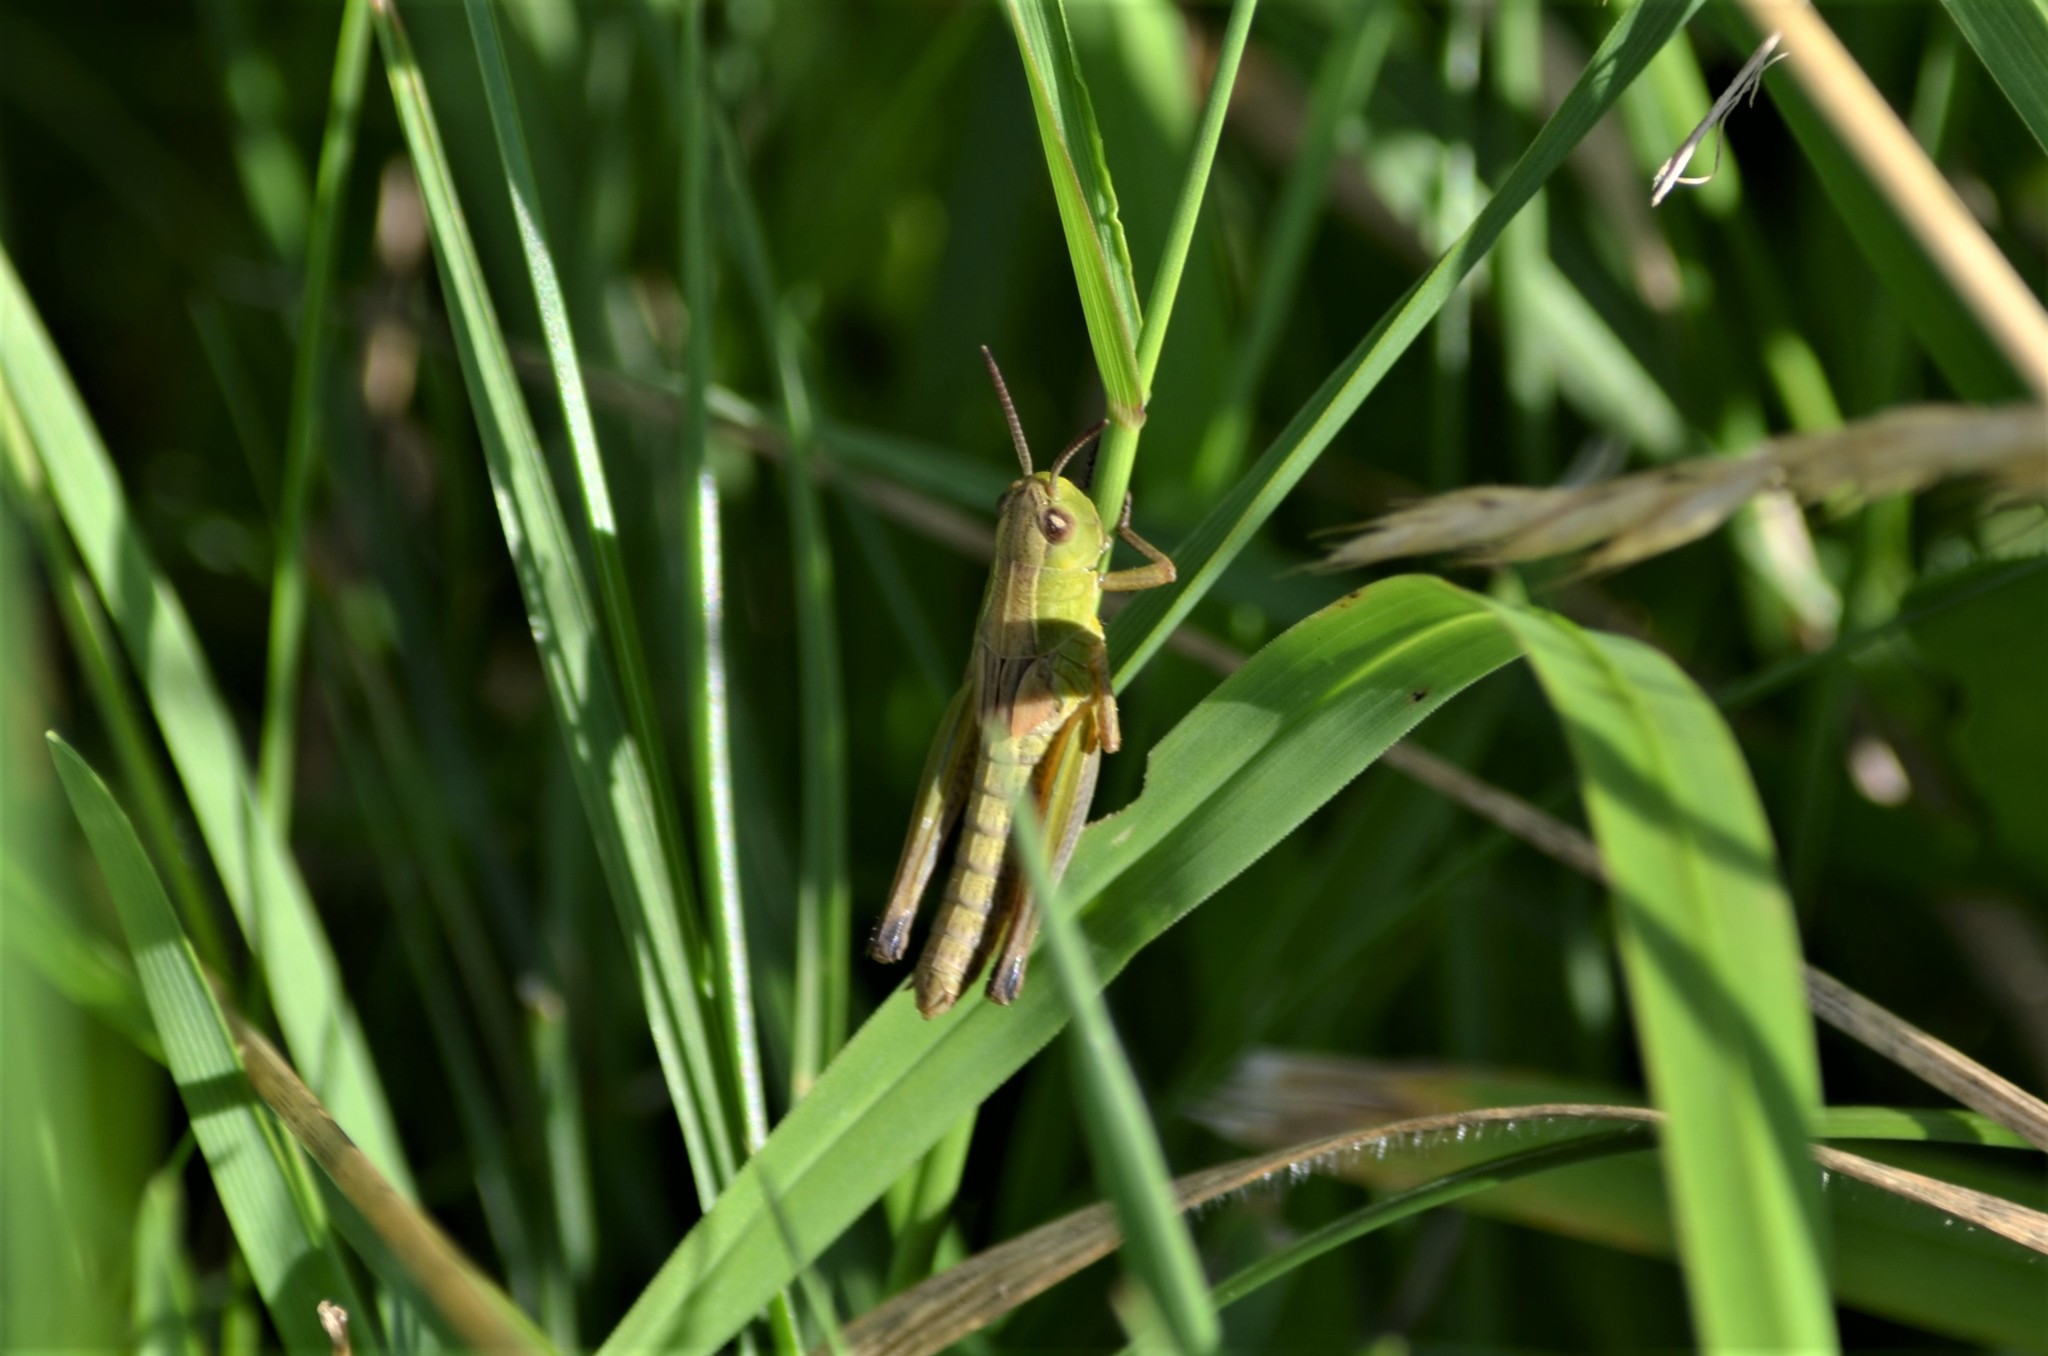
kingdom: Animalia
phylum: Arthropoda
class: Insecta
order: Orthoptera
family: Acrididae
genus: Pseudochorthippus
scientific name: Pseudochorthippus parallelus
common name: Meadow grasshopper
